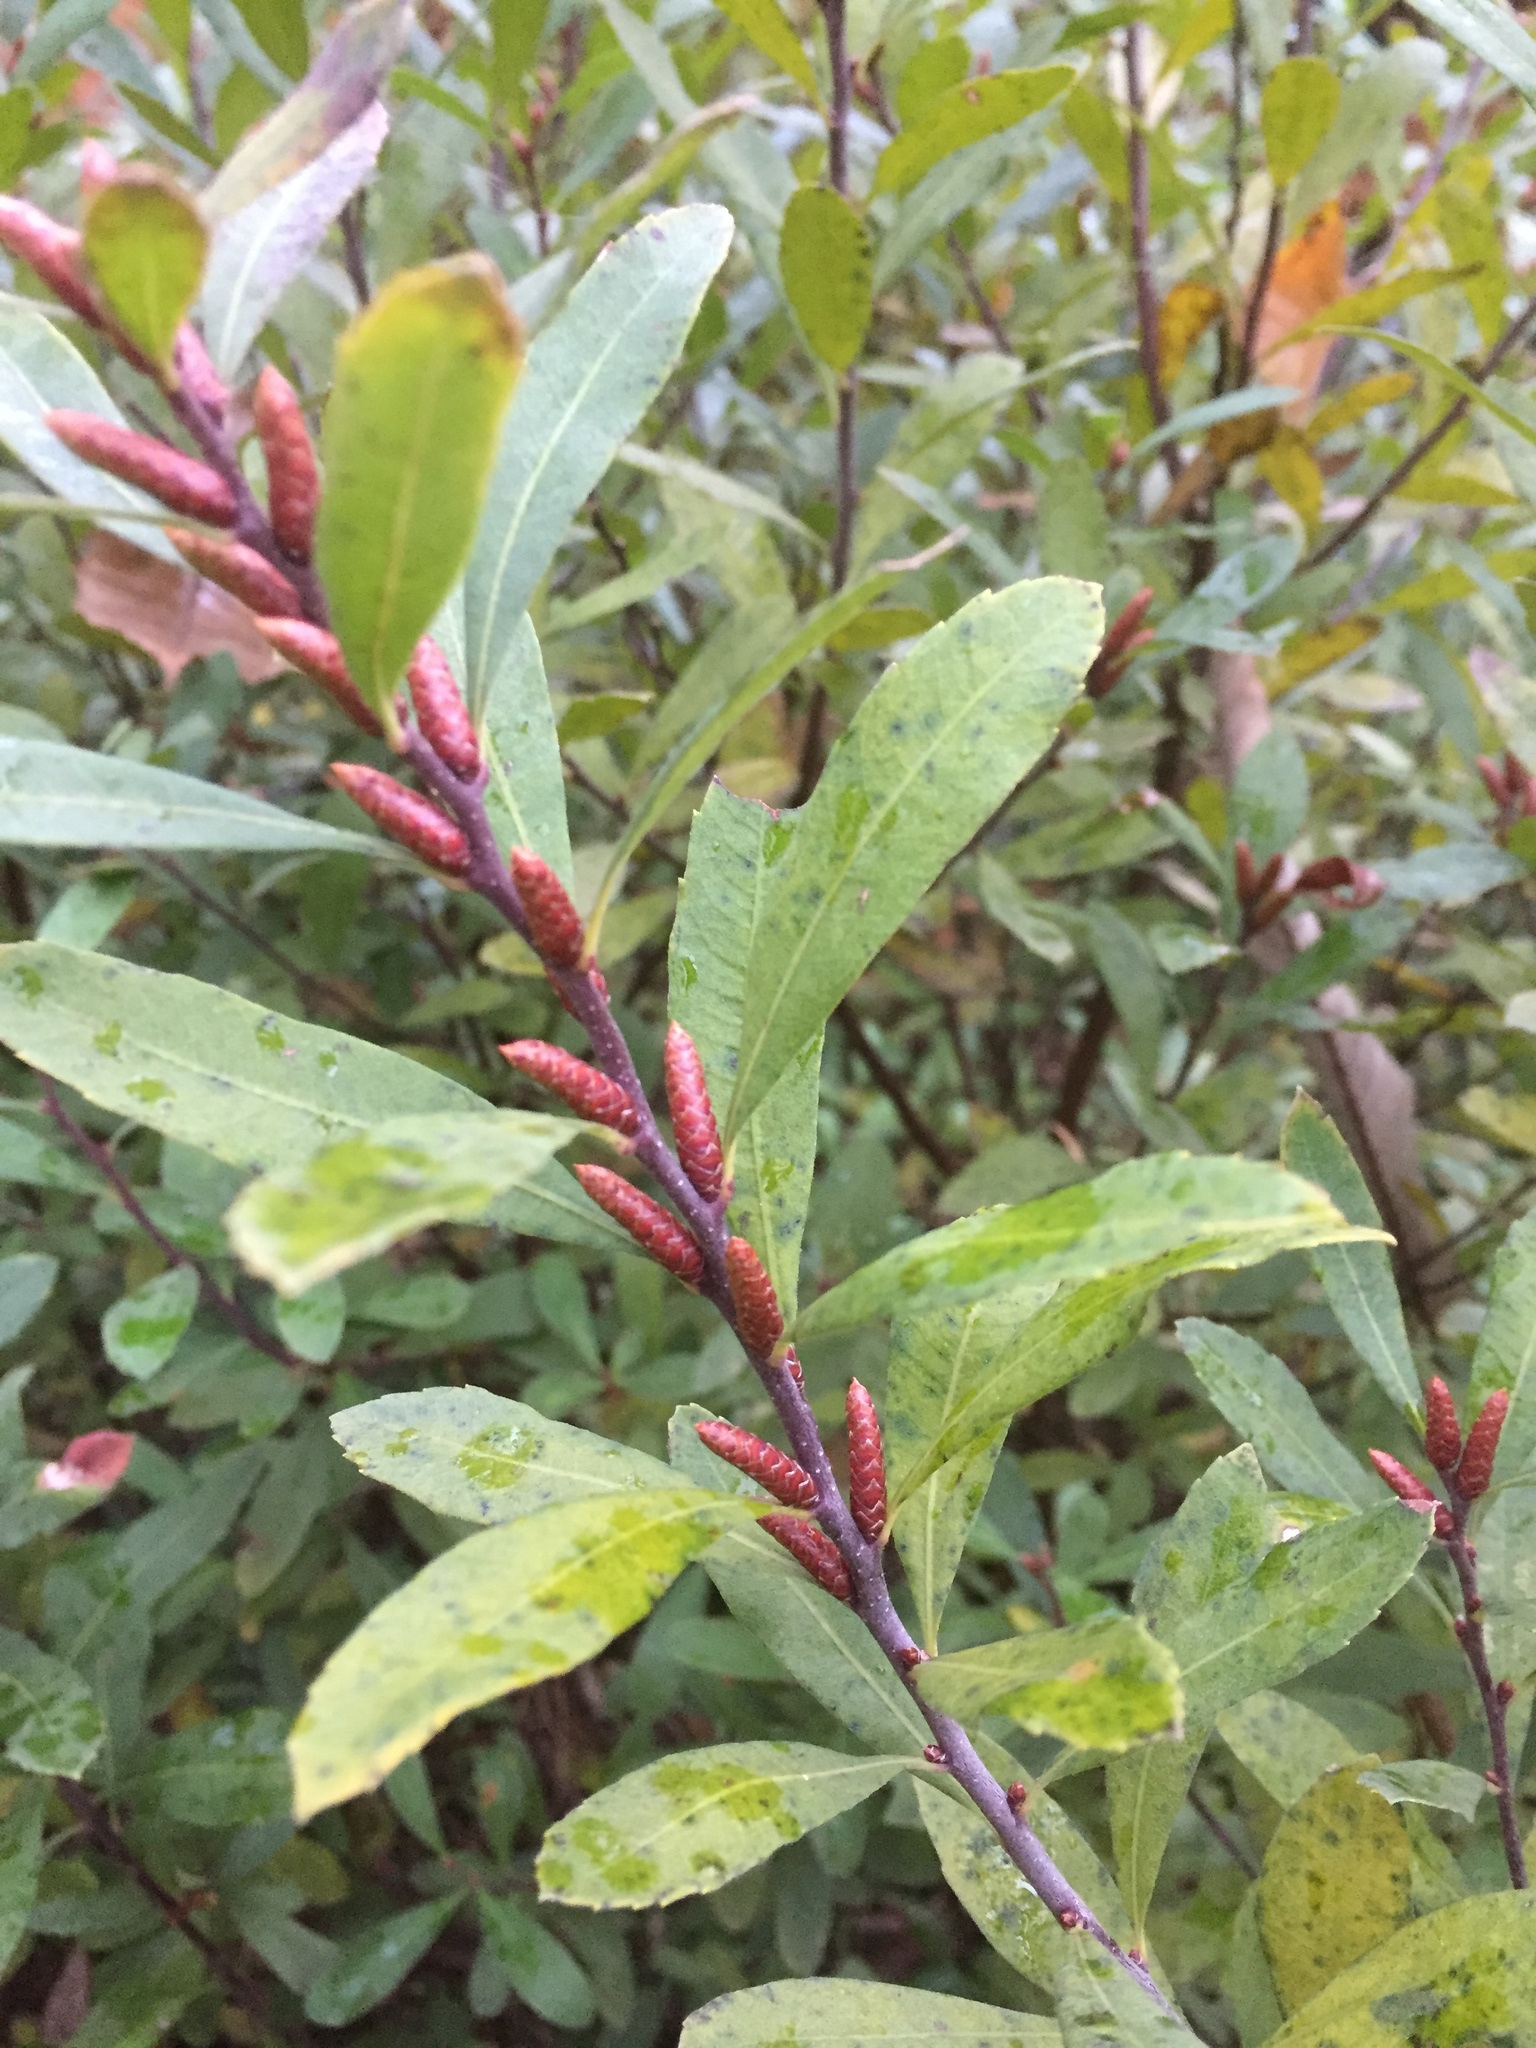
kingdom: Plantae
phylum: Tracheophyta
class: Magnoliopsida
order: Fagales
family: Myricaceae
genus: Myrica
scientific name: Myrica gale
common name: Sweet gale
